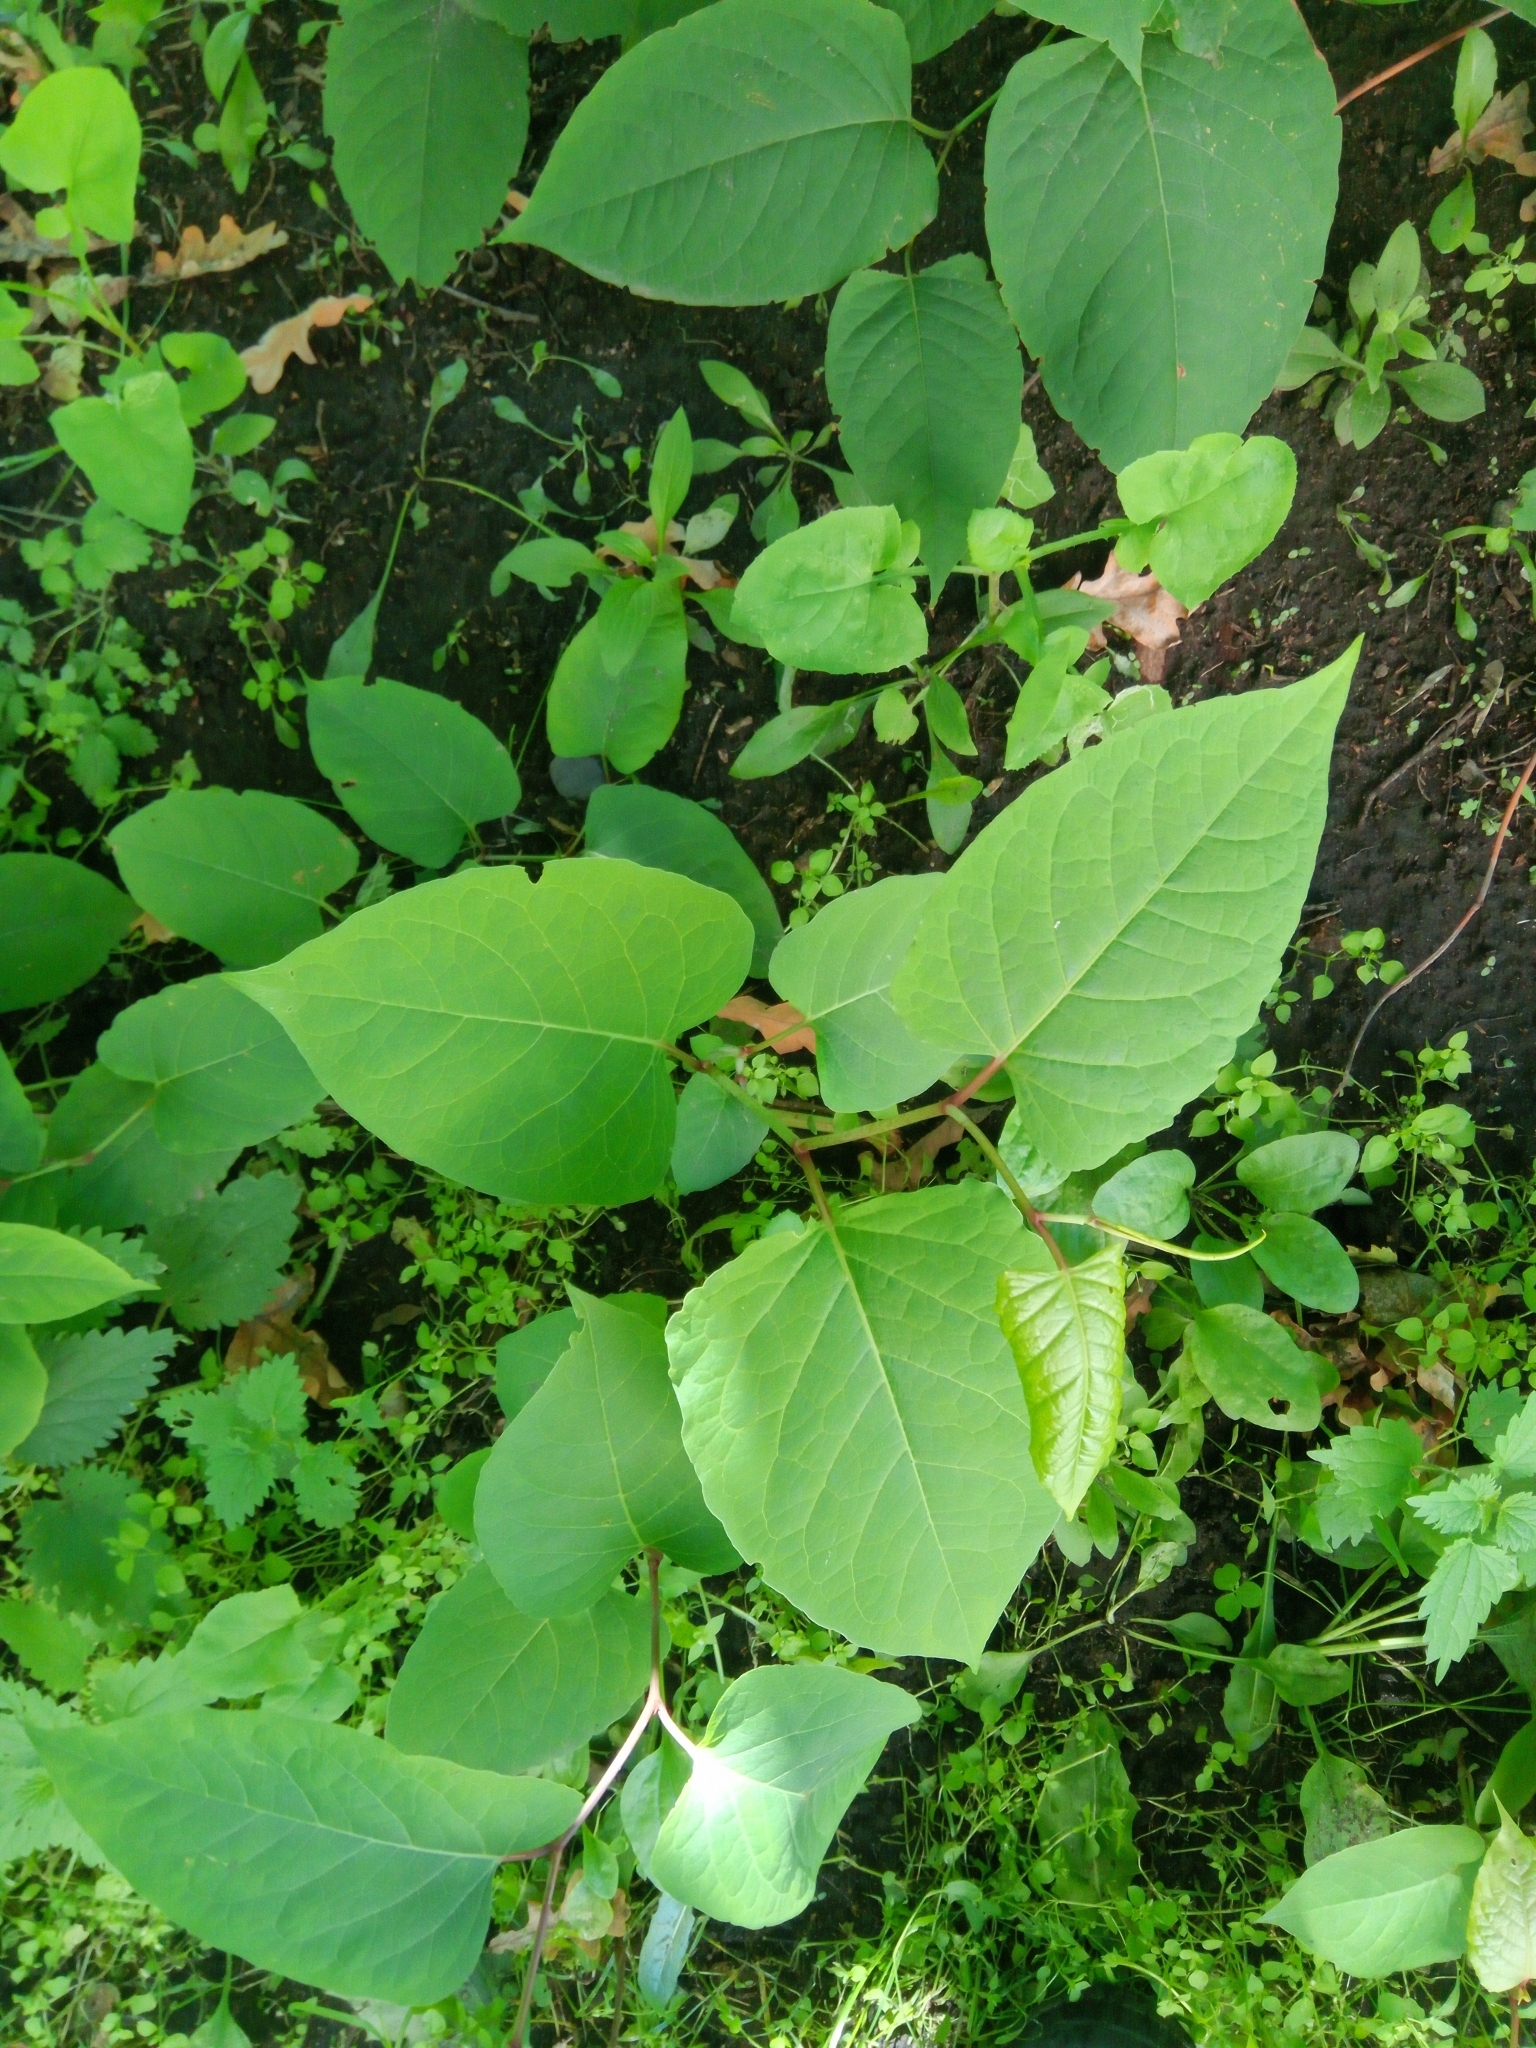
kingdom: Plantae
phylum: Tracheophyta
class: Magnoliopsida
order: Caryophyllales
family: Polygonaceae
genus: Reynoutria
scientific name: Reynoutria bohemica
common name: Bohemian knotweed
